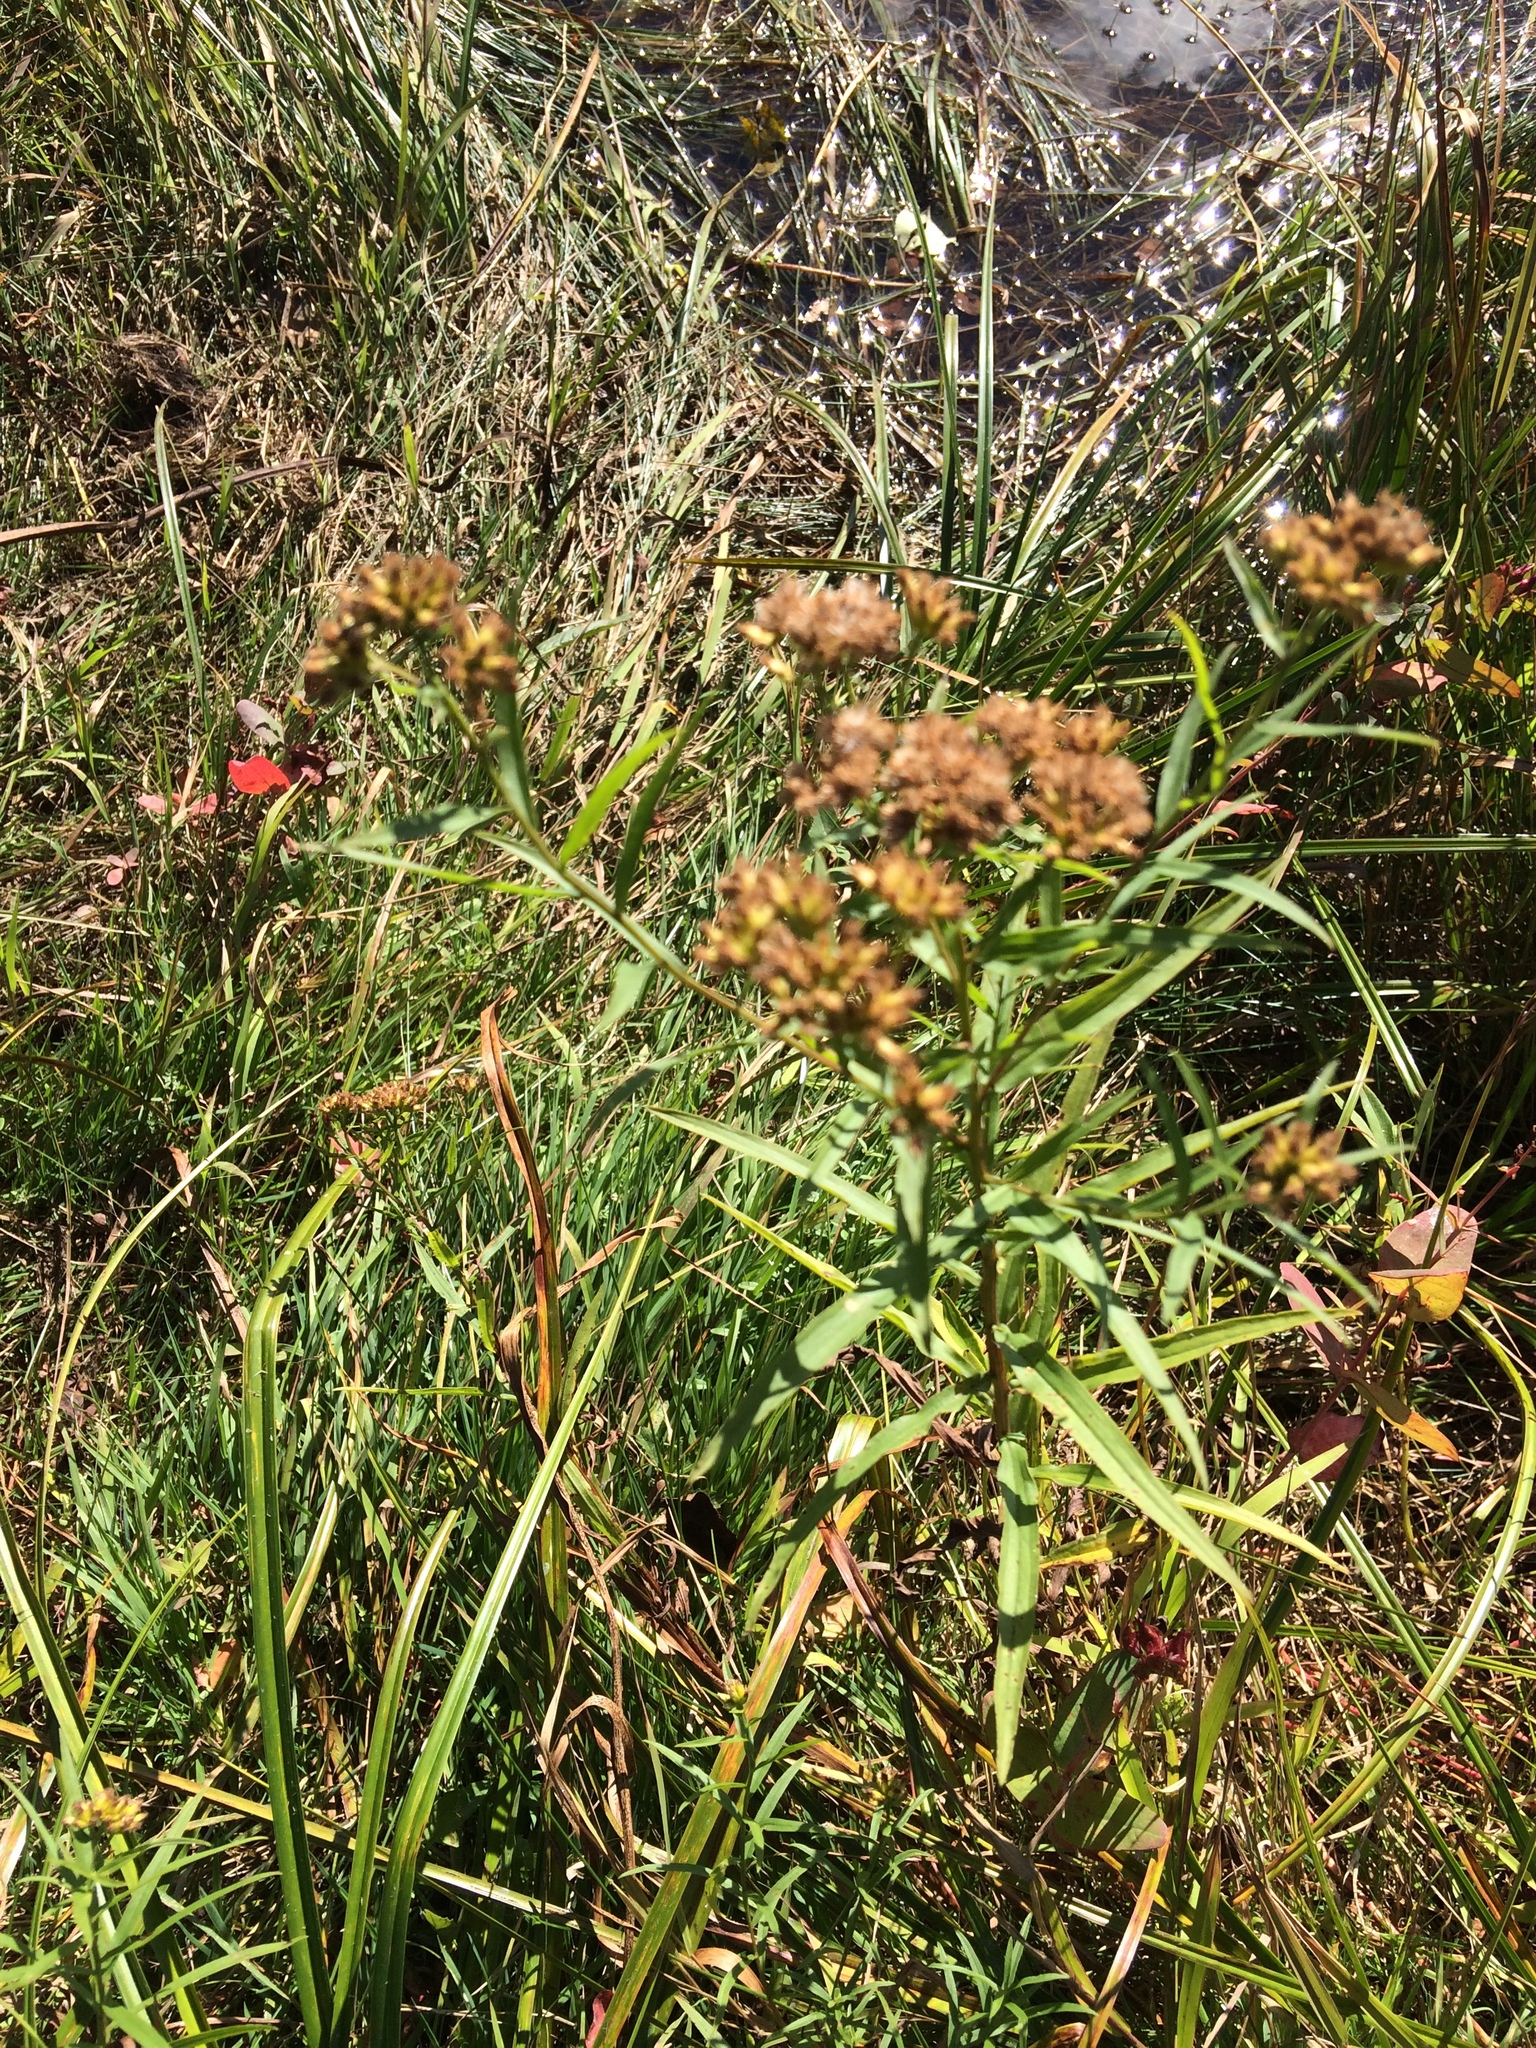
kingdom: Plantae
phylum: Tracheophyta
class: Magnoliopsida
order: Asterales
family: Asteraceae
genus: Euthamia
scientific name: Euthamia graminifolia
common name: Common goldentop
